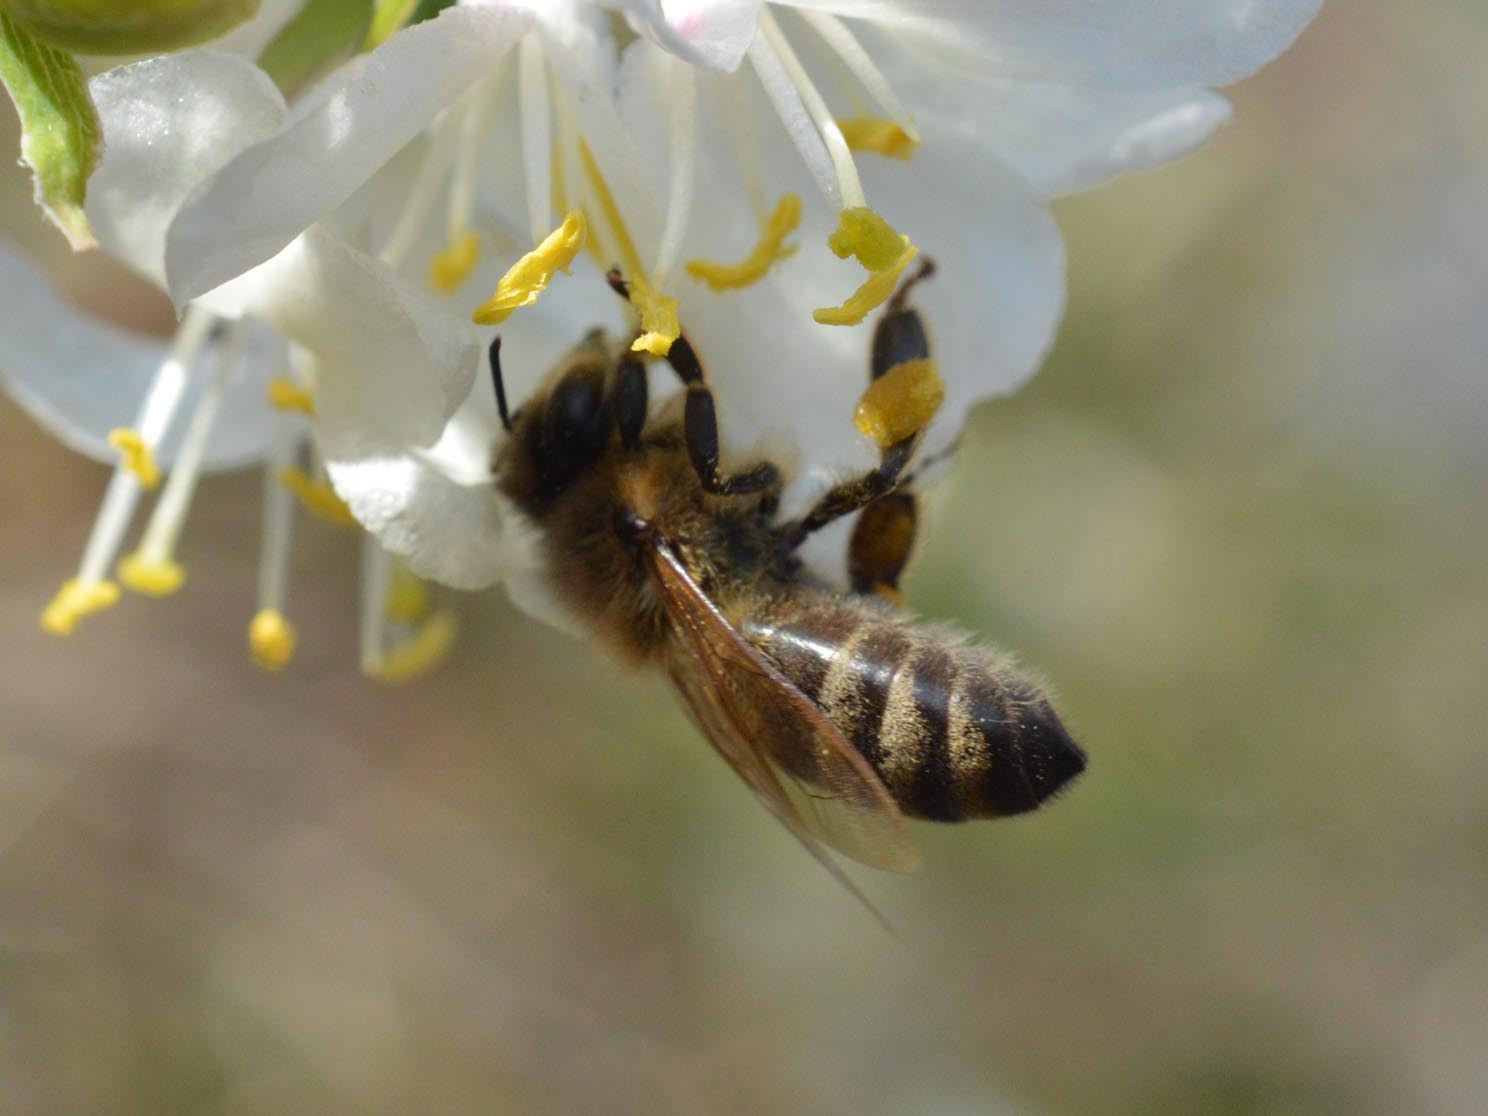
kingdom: Animalia
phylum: Arthropoda
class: Insecta
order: Hymenoptera
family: Apidae
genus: Apis
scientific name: Apis mellifera
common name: Honey bee
